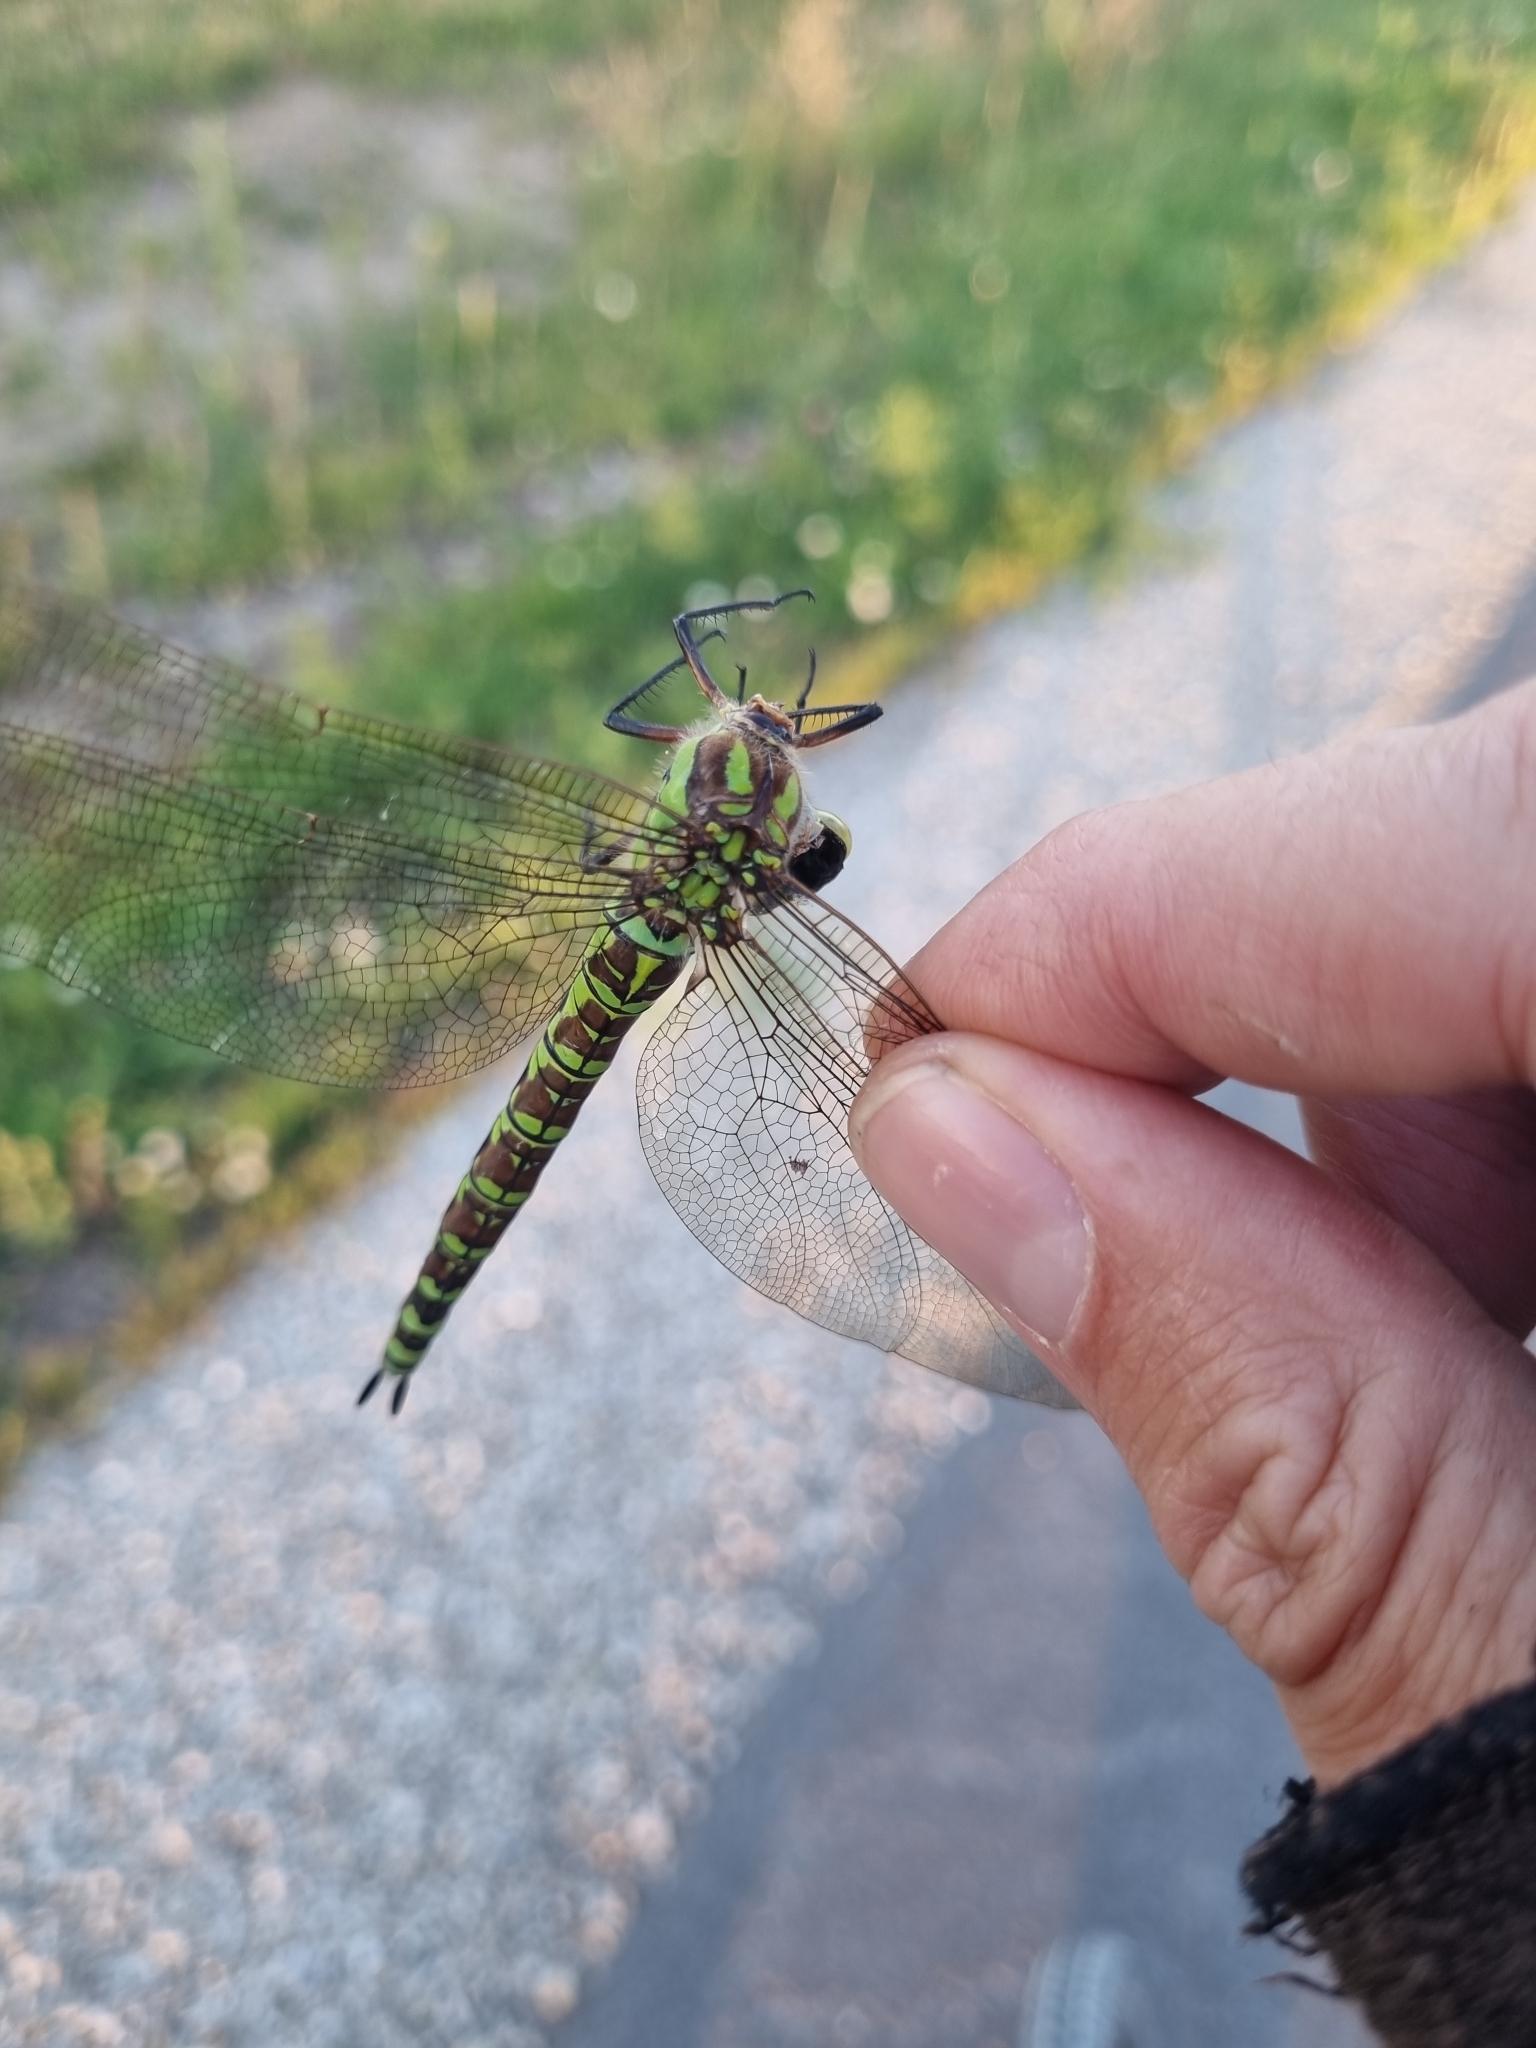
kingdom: Animalia
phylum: Arthropoda
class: Insecta
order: Odonata
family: Aeshnidae
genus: Aeshna
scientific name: Aeshna cyanea
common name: Southern hawker
